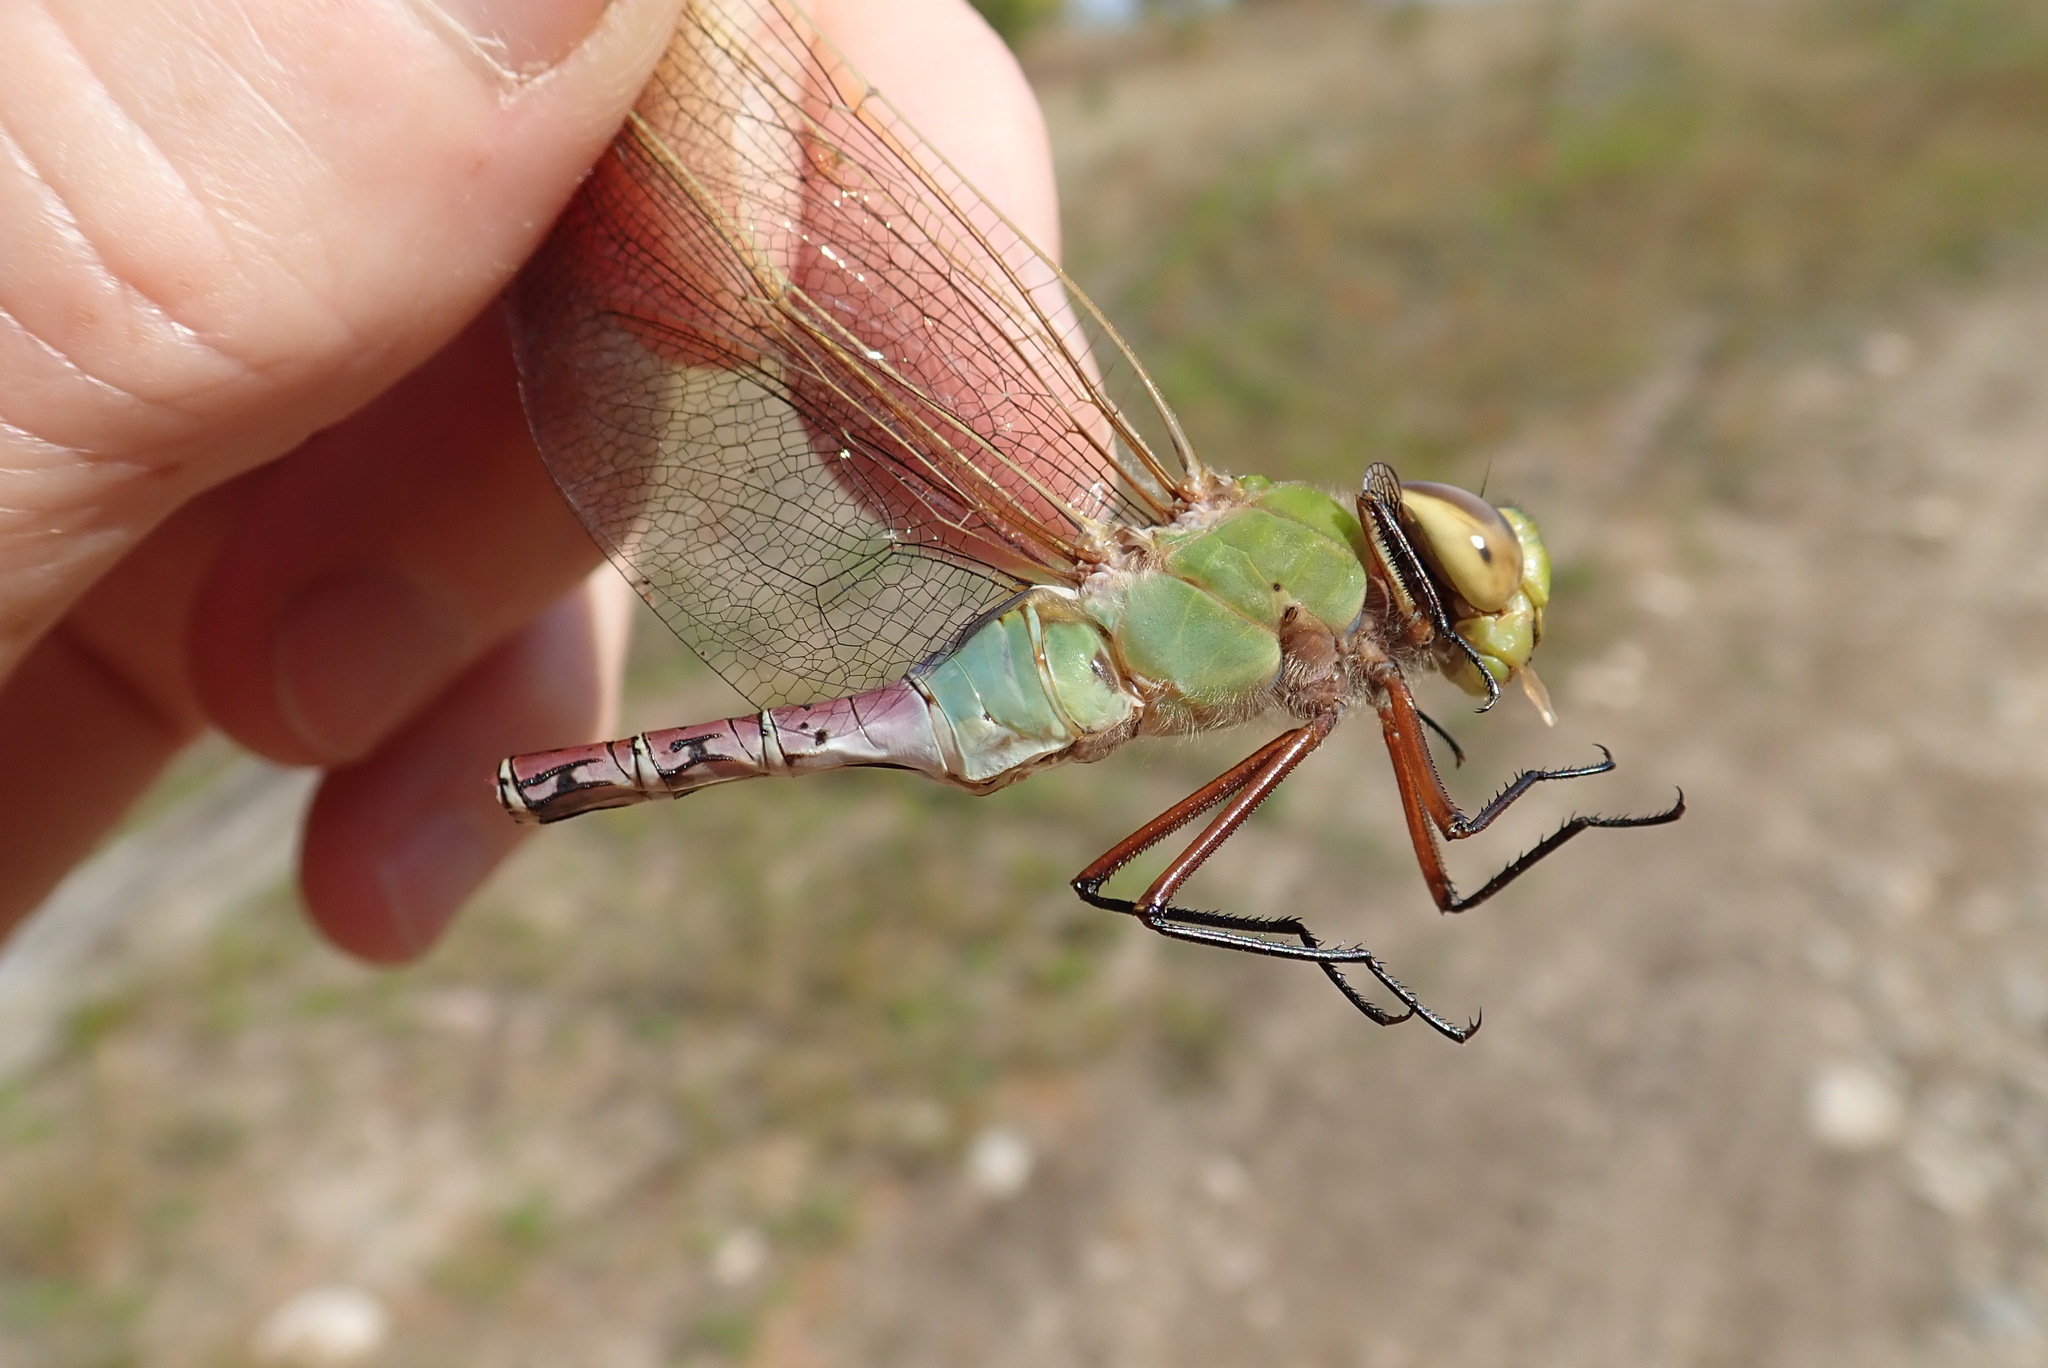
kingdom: Animalia
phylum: Arthropoda
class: Insecta
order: Odonata
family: Aeshnidae
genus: Anax
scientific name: Anax junius
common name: Common green darner
